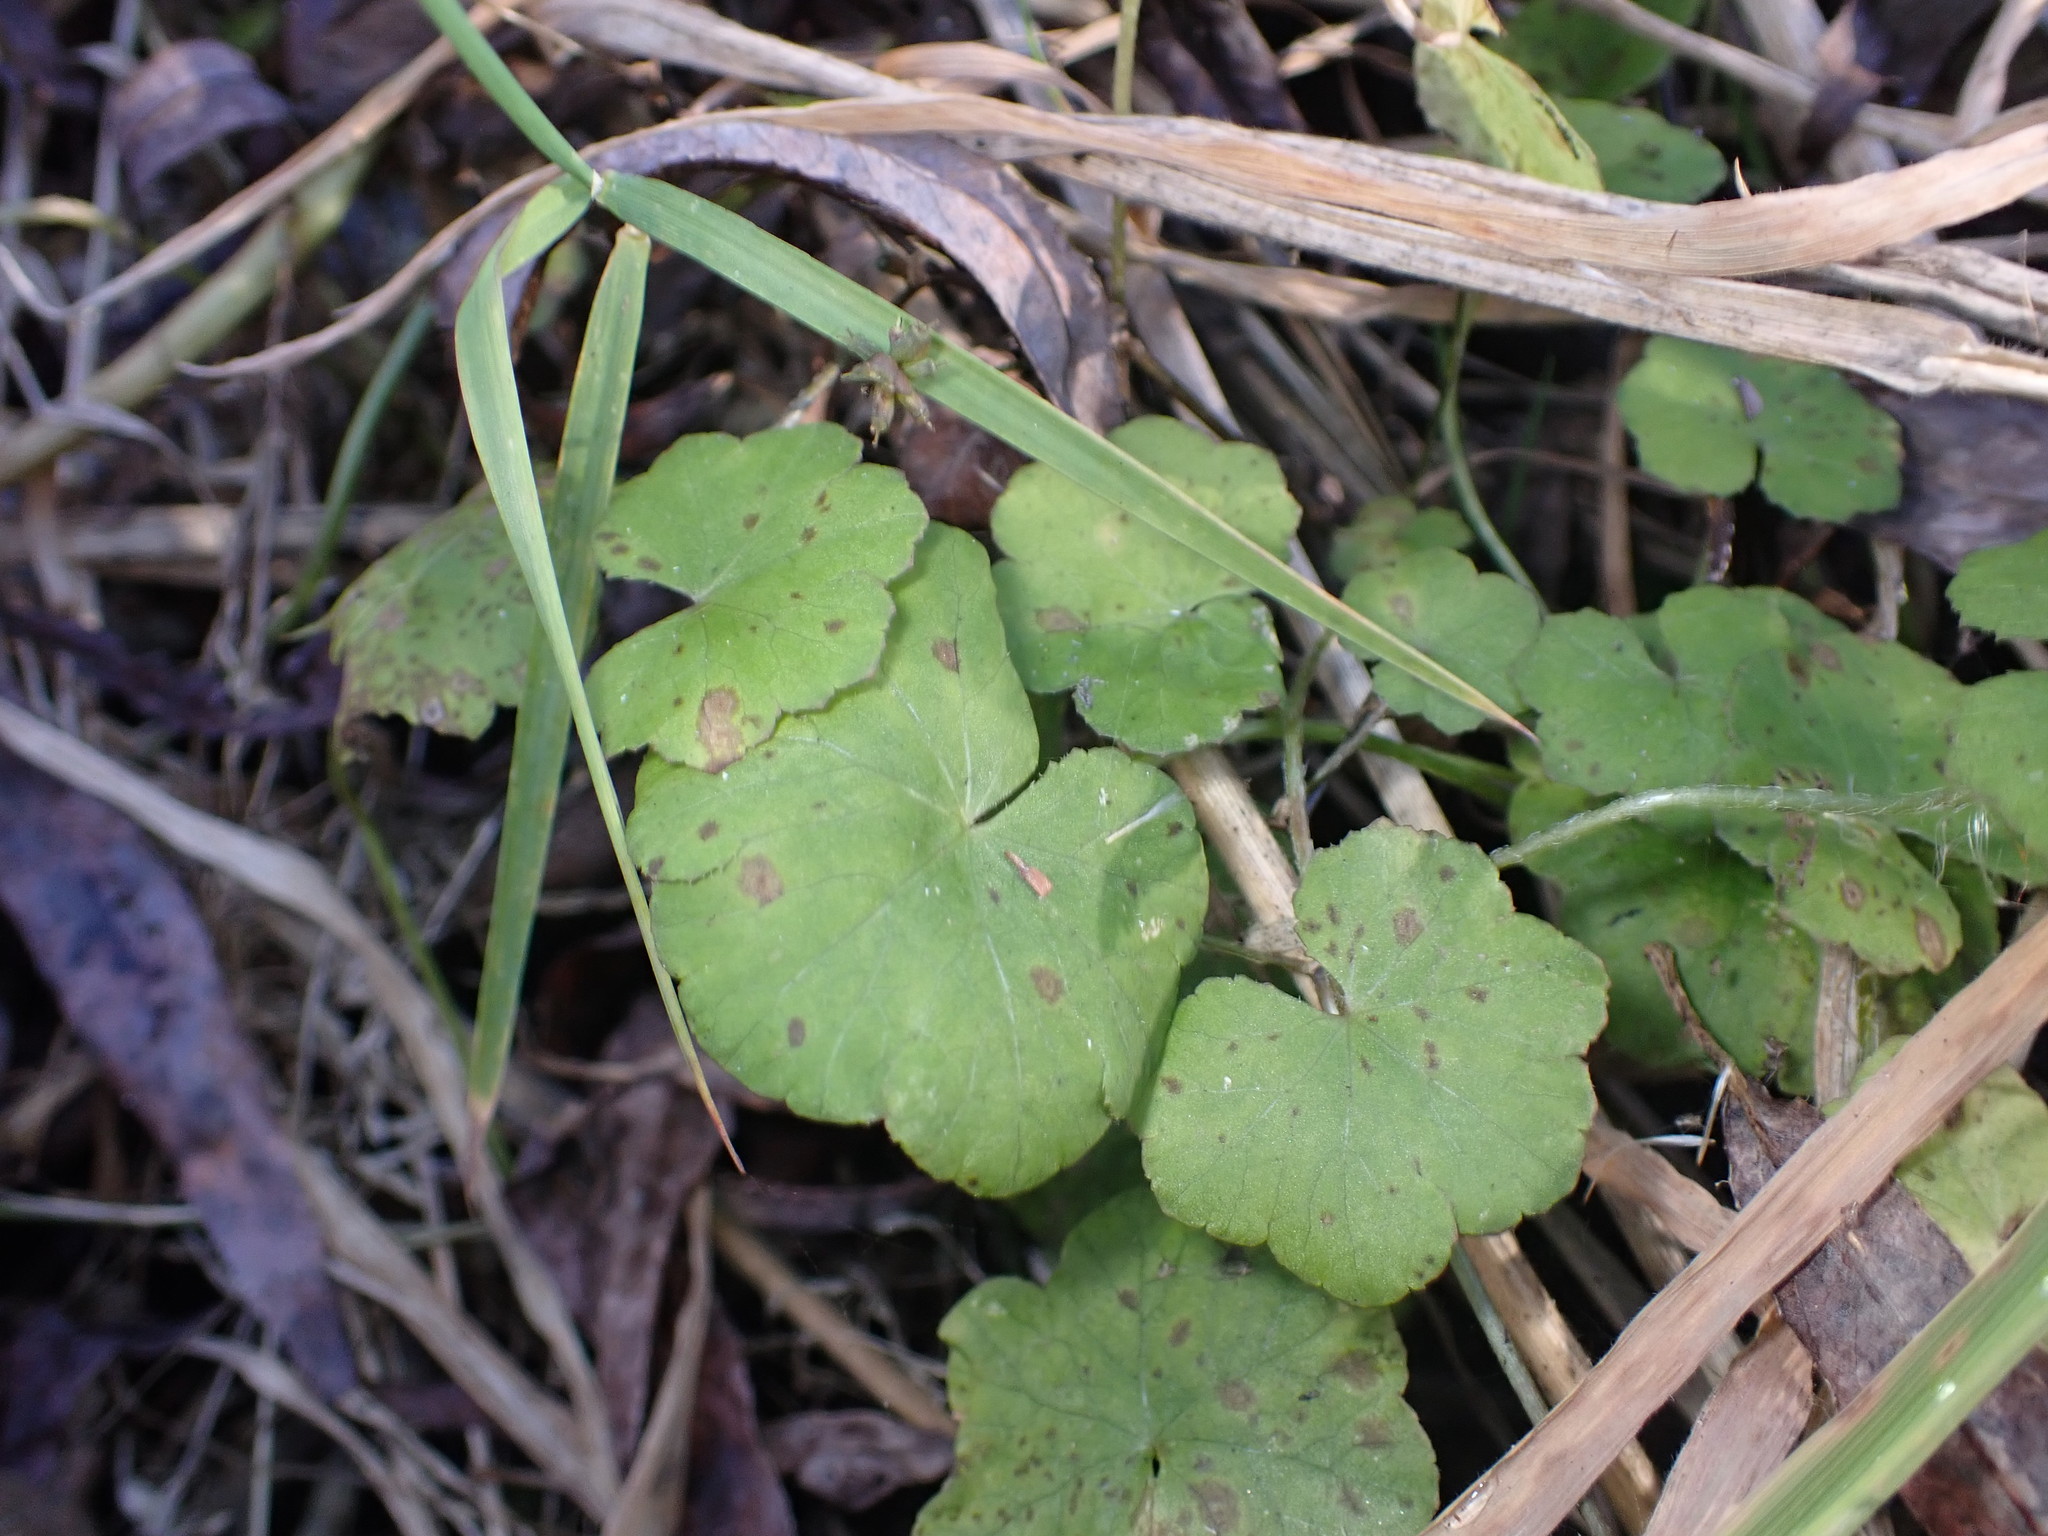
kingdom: Plantae
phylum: Tracheophyta
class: Magnoliopsida
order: Apiales
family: Araliaceae
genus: Hydrocotyle
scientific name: Hydrocotyle novae-zeelandiae
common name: New zealand pennywort
